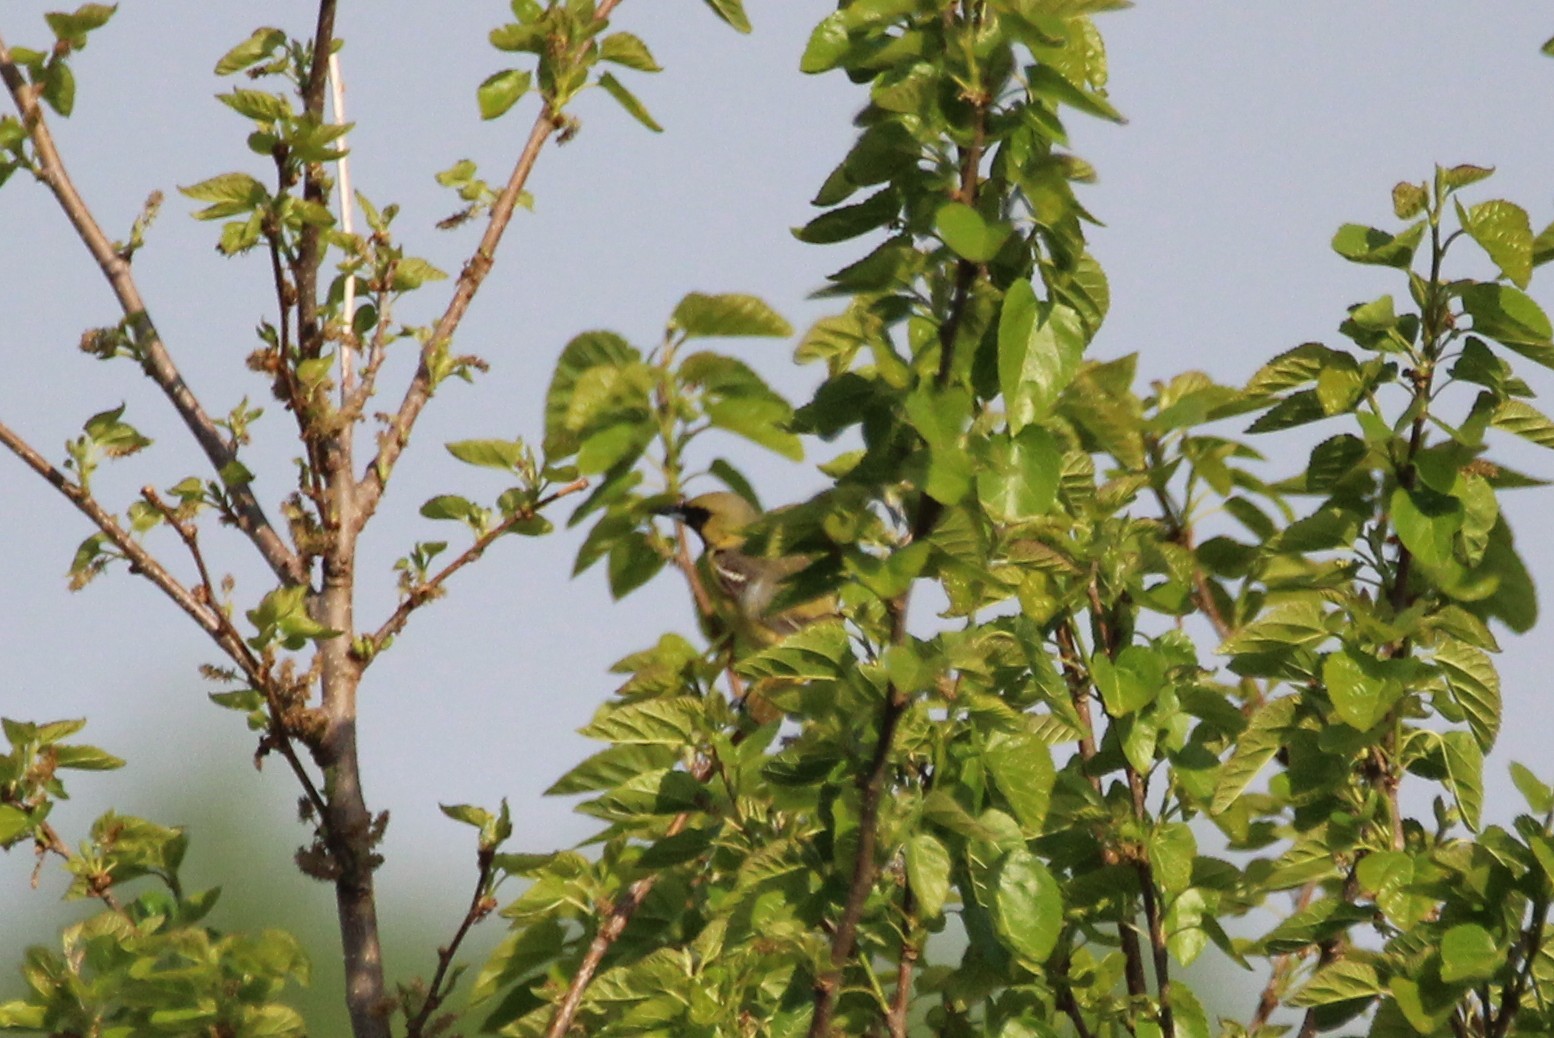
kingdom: Animalia
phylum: Chordata
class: Aves
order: Passeriformes
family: Icteridae
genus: Icterus
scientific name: Icterus spurius
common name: Orchard oriole
